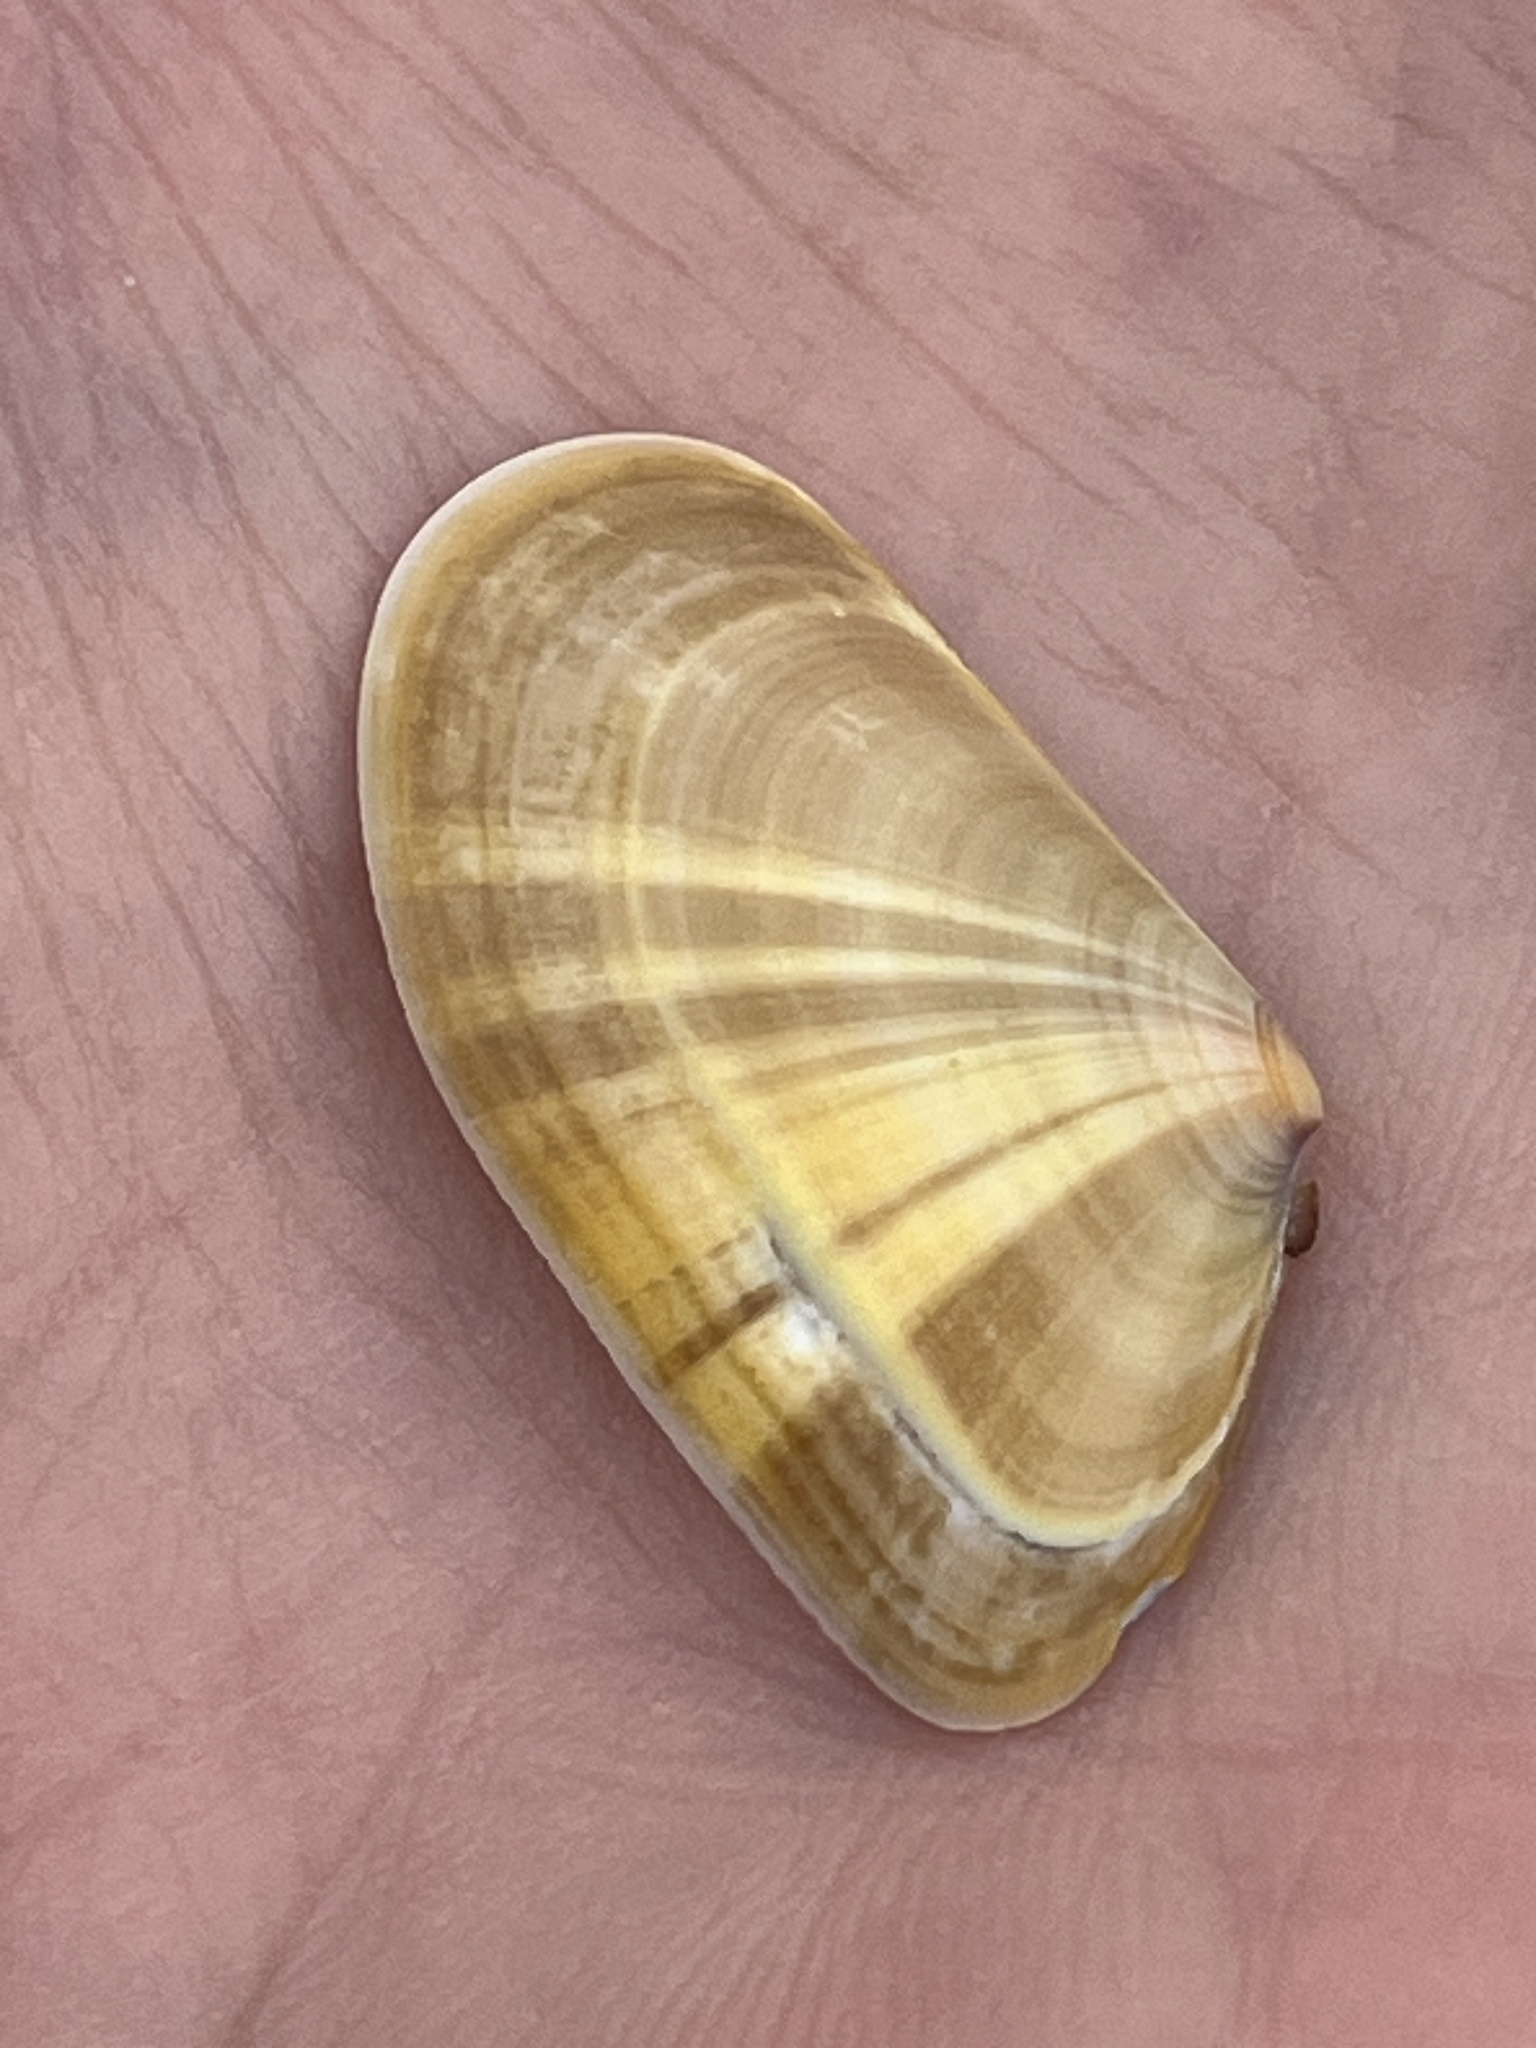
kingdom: Animalia
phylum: Mollusca
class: Bivalvia
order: Cardiida
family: Donacidae
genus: Donax
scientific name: Donax trunculus
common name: Truncate donax
